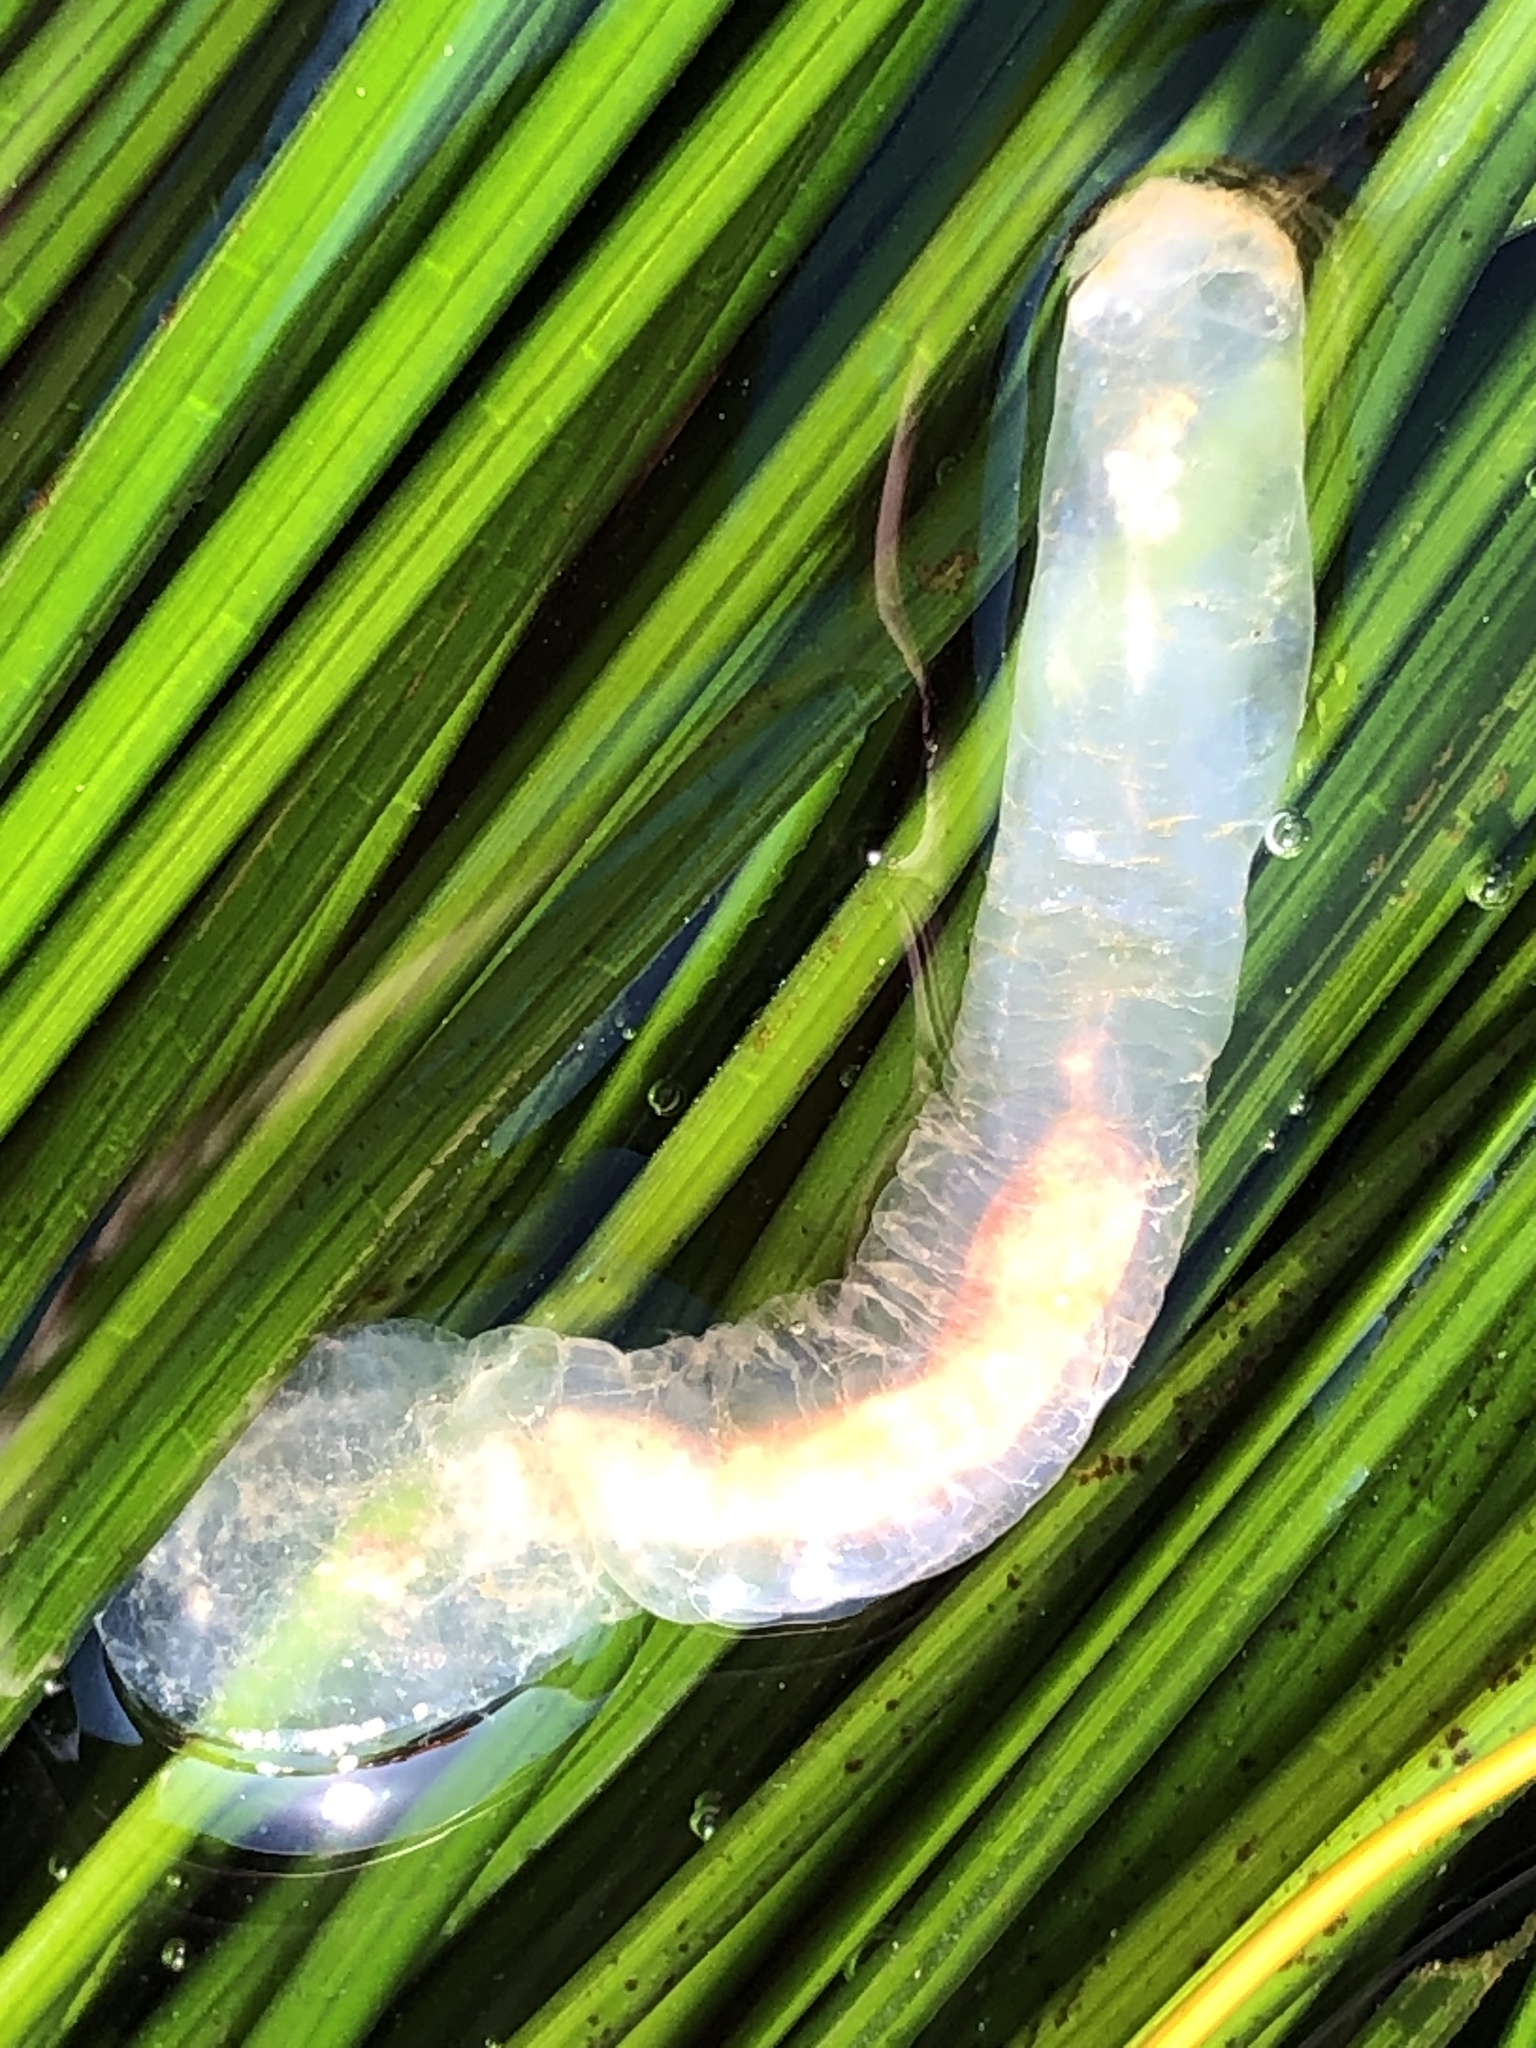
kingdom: Animalia
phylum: Chordata
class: Ascidiacea
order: Aplousobranchia
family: Clavelinidae
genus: Clavelina
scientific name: Clavelina huntsmani
